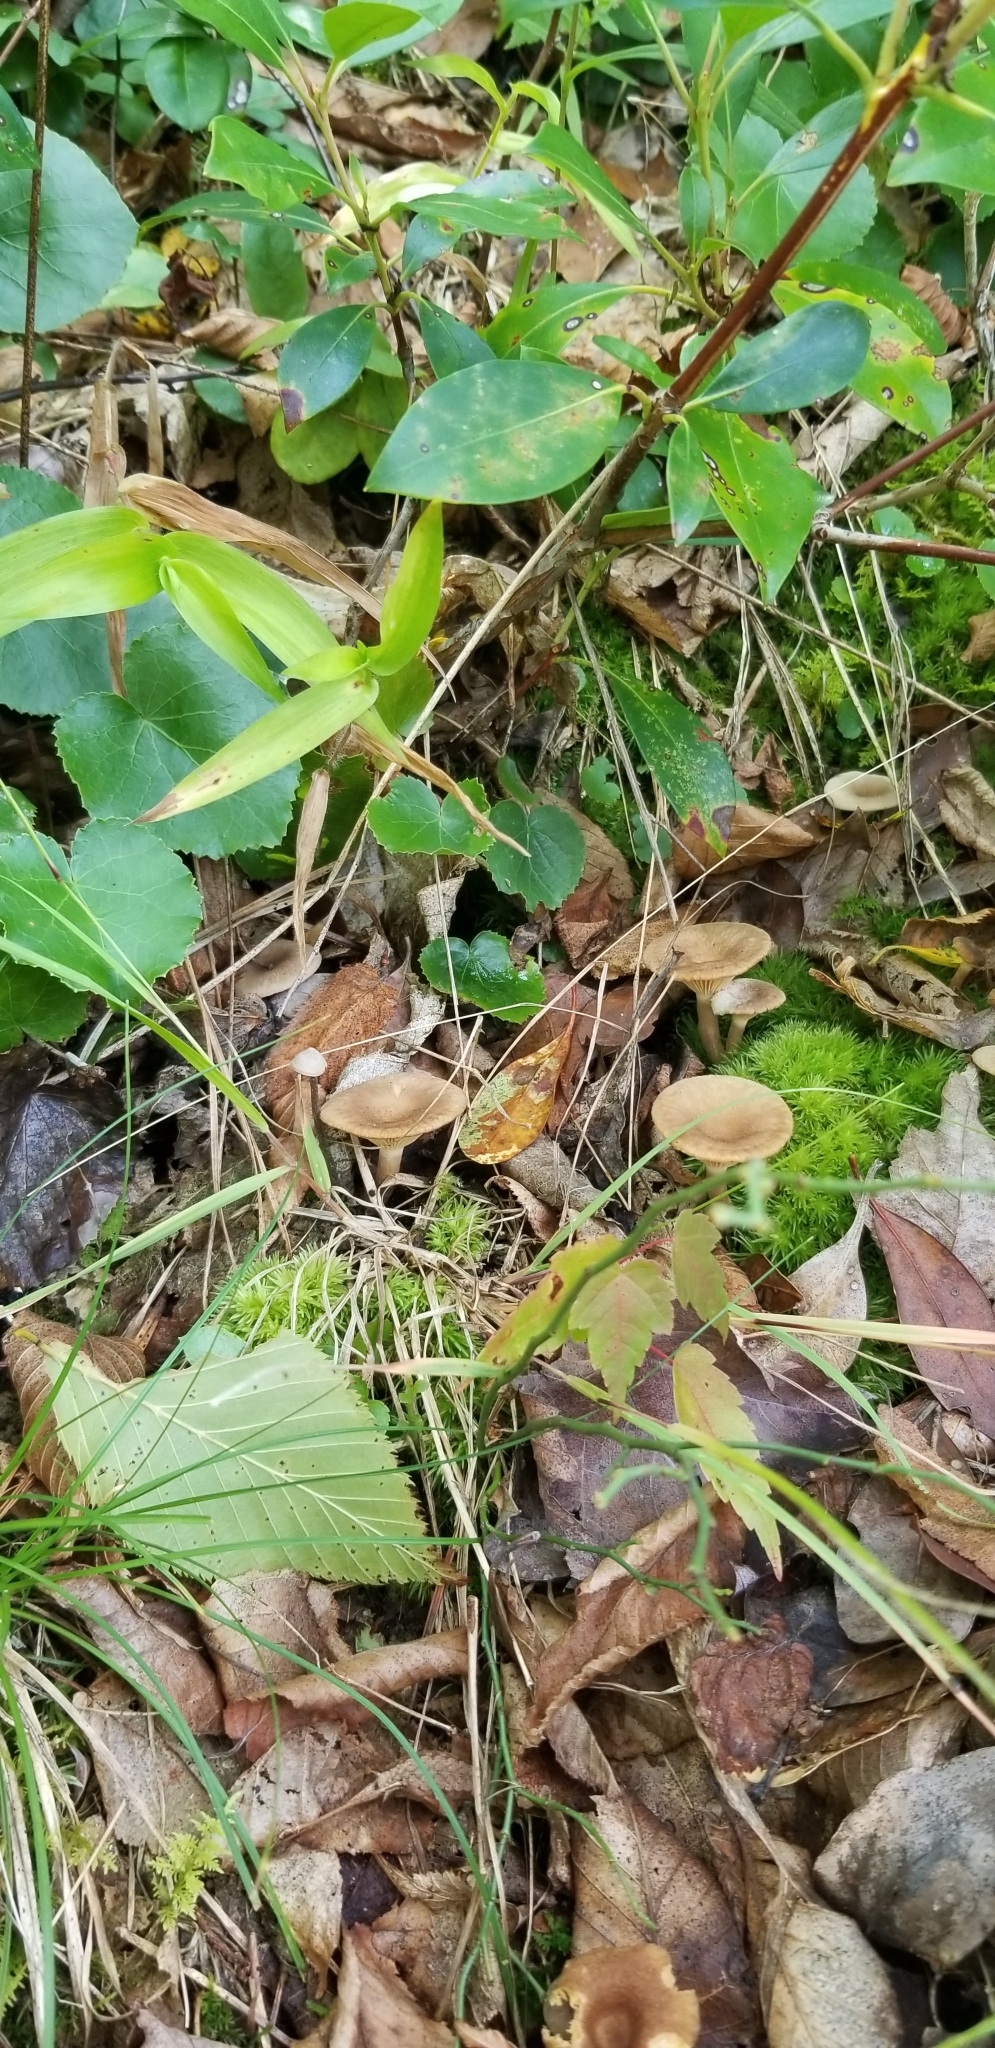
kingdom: Fungi
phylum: Basidiomycota
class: Agaricomycetes
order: Agaricales
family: Tricholomataceae
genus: Infundibulicybe
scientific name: Infundibulicybe gibba
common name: Common funnel
